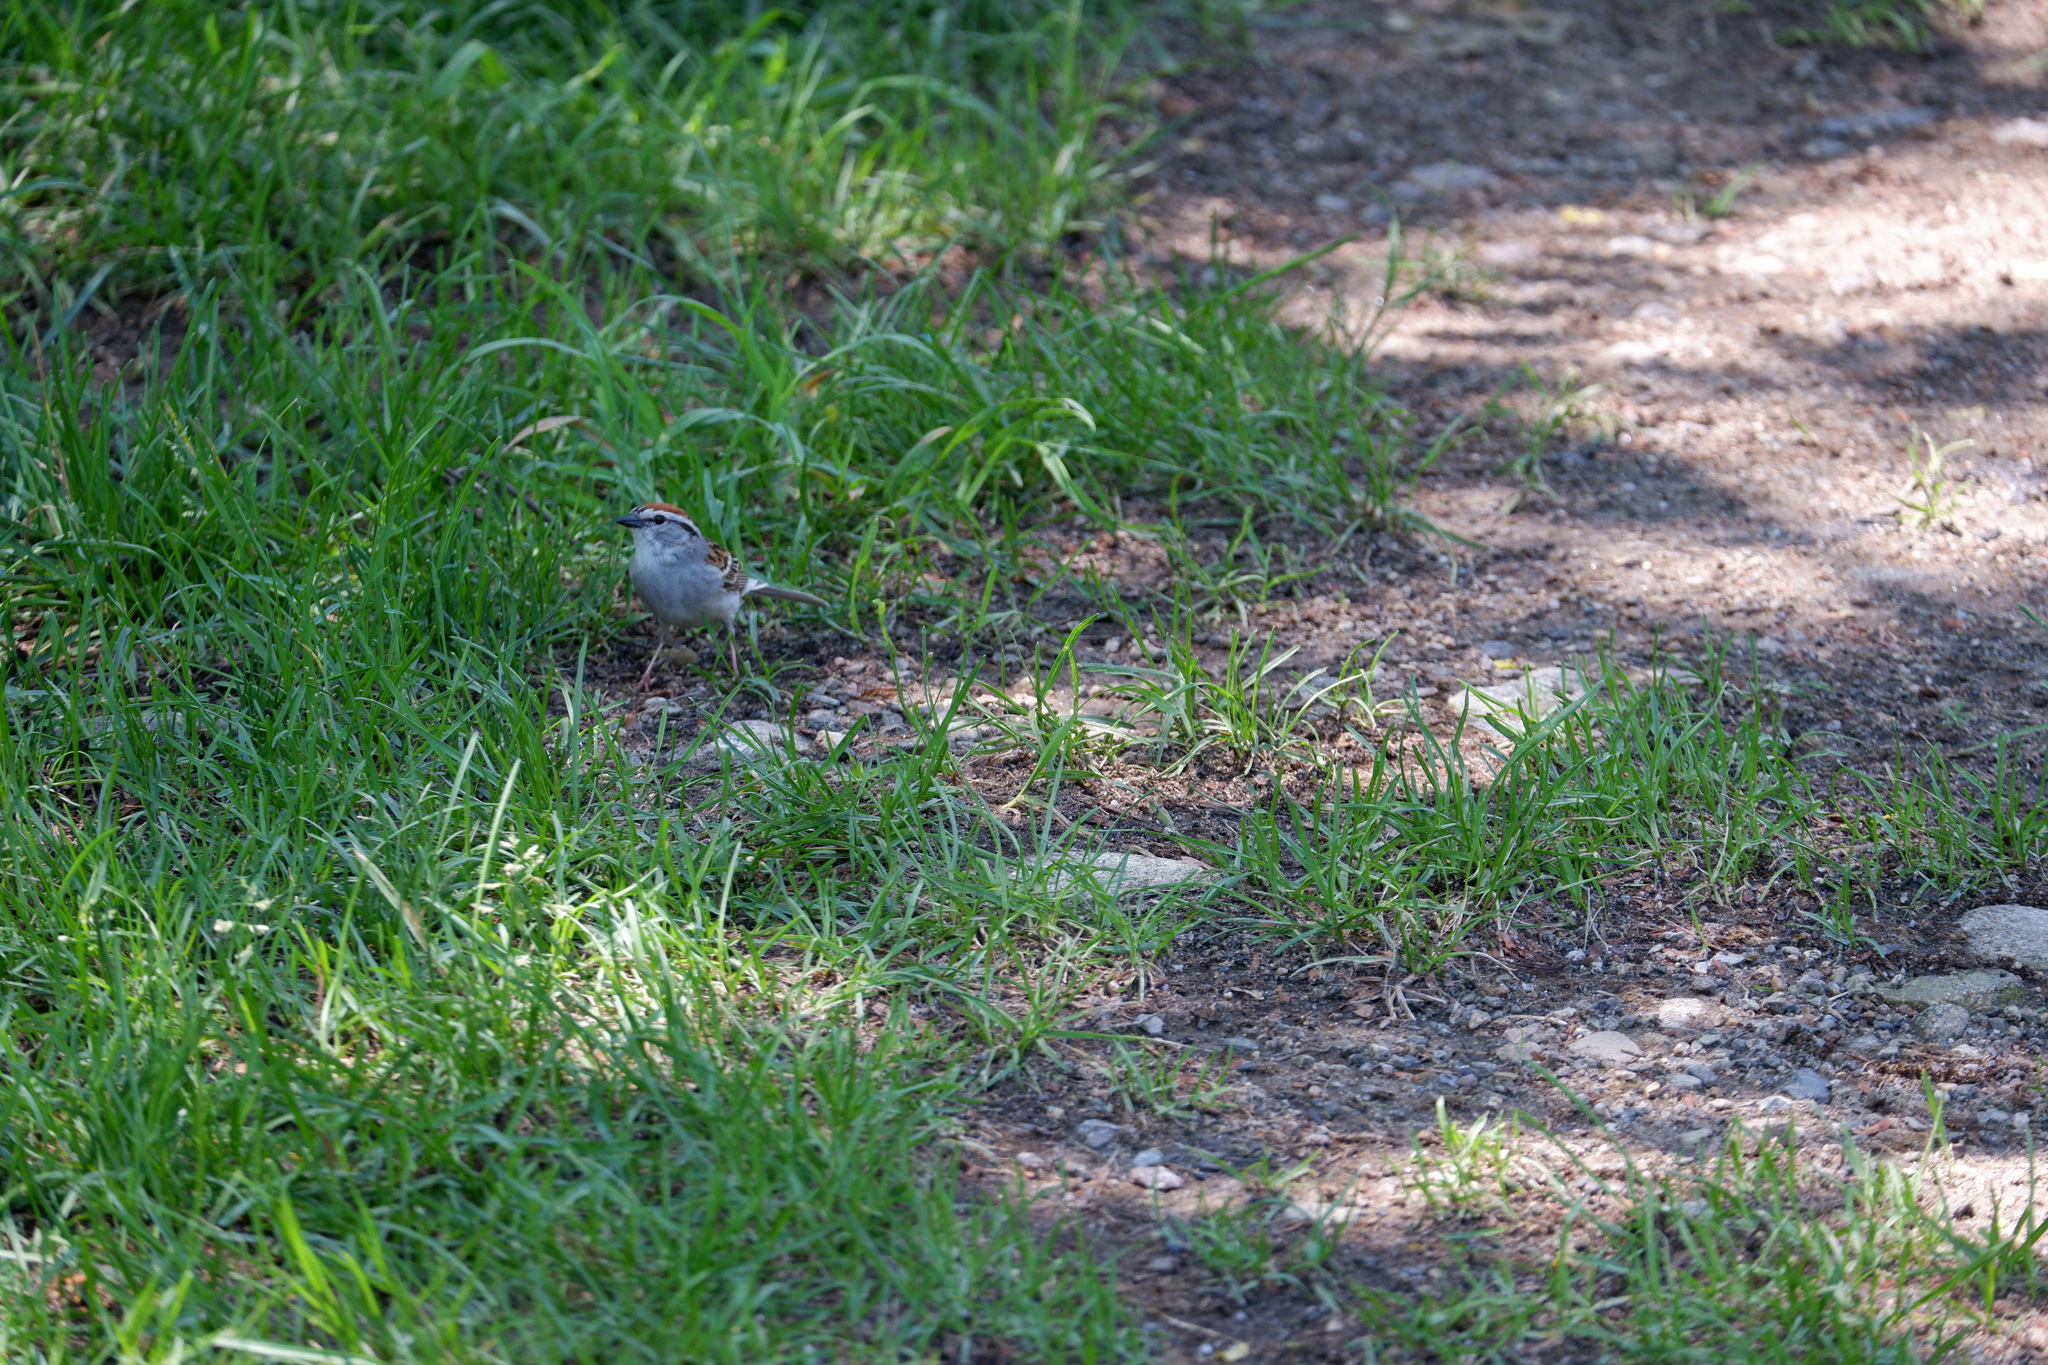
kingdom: Animalia
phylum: Chordata
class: Aves
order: Passeriformes
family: Passerellidae
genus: Spizella
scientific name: Spizella passerina
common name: Chipping sparrow
